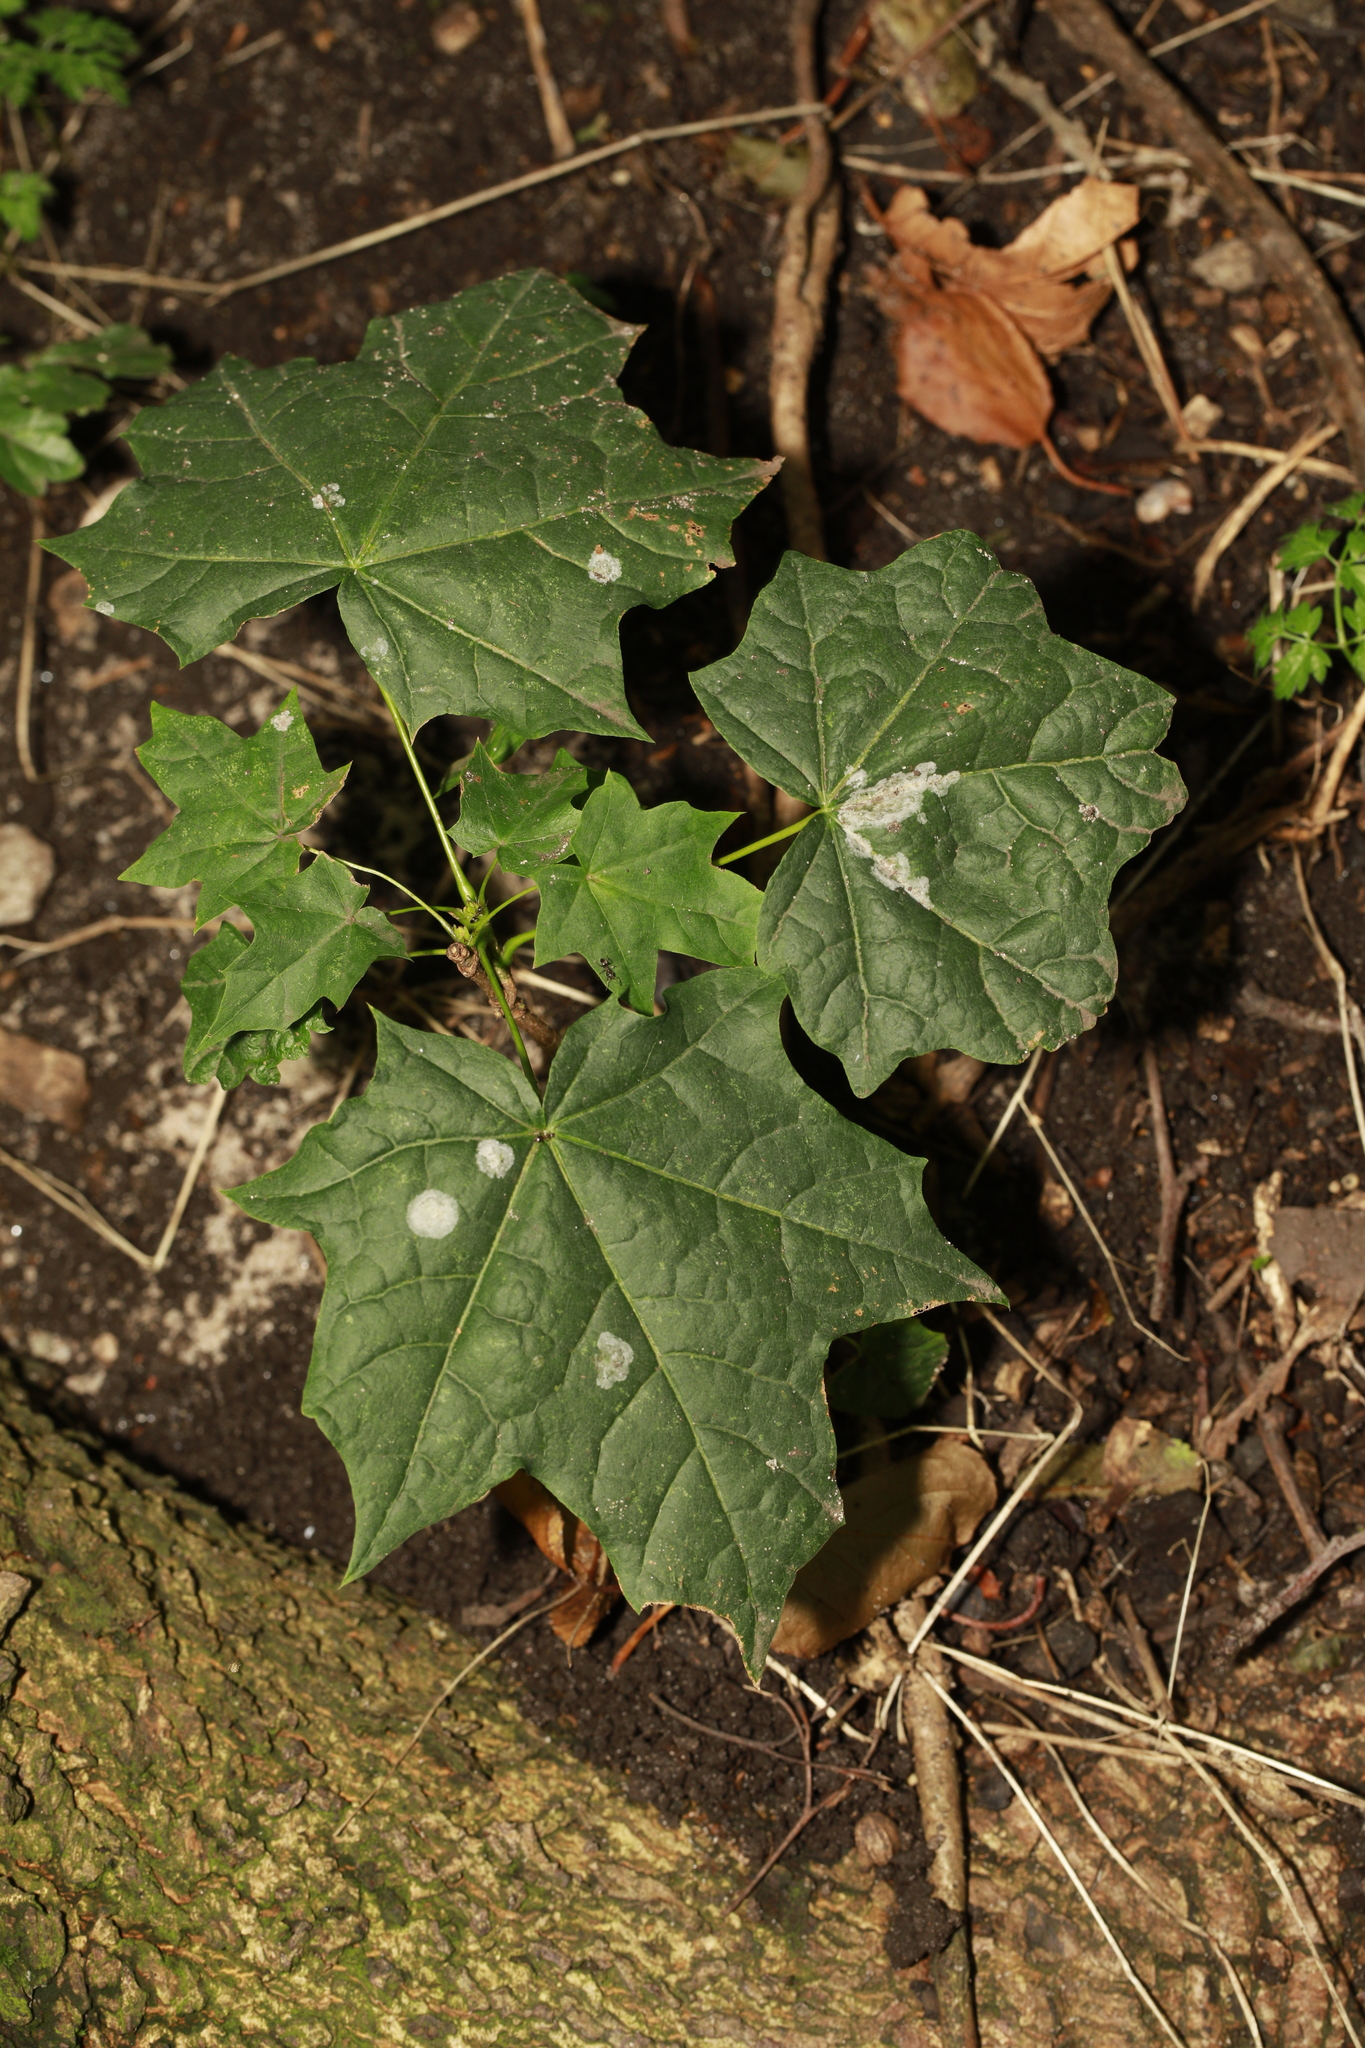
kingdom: Plantae
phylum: Tracheophyta
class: Magnoliopsida
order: Sapindales
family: Sapindaceae
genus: Acer
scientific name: Acer platanoides
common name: Norway maple
